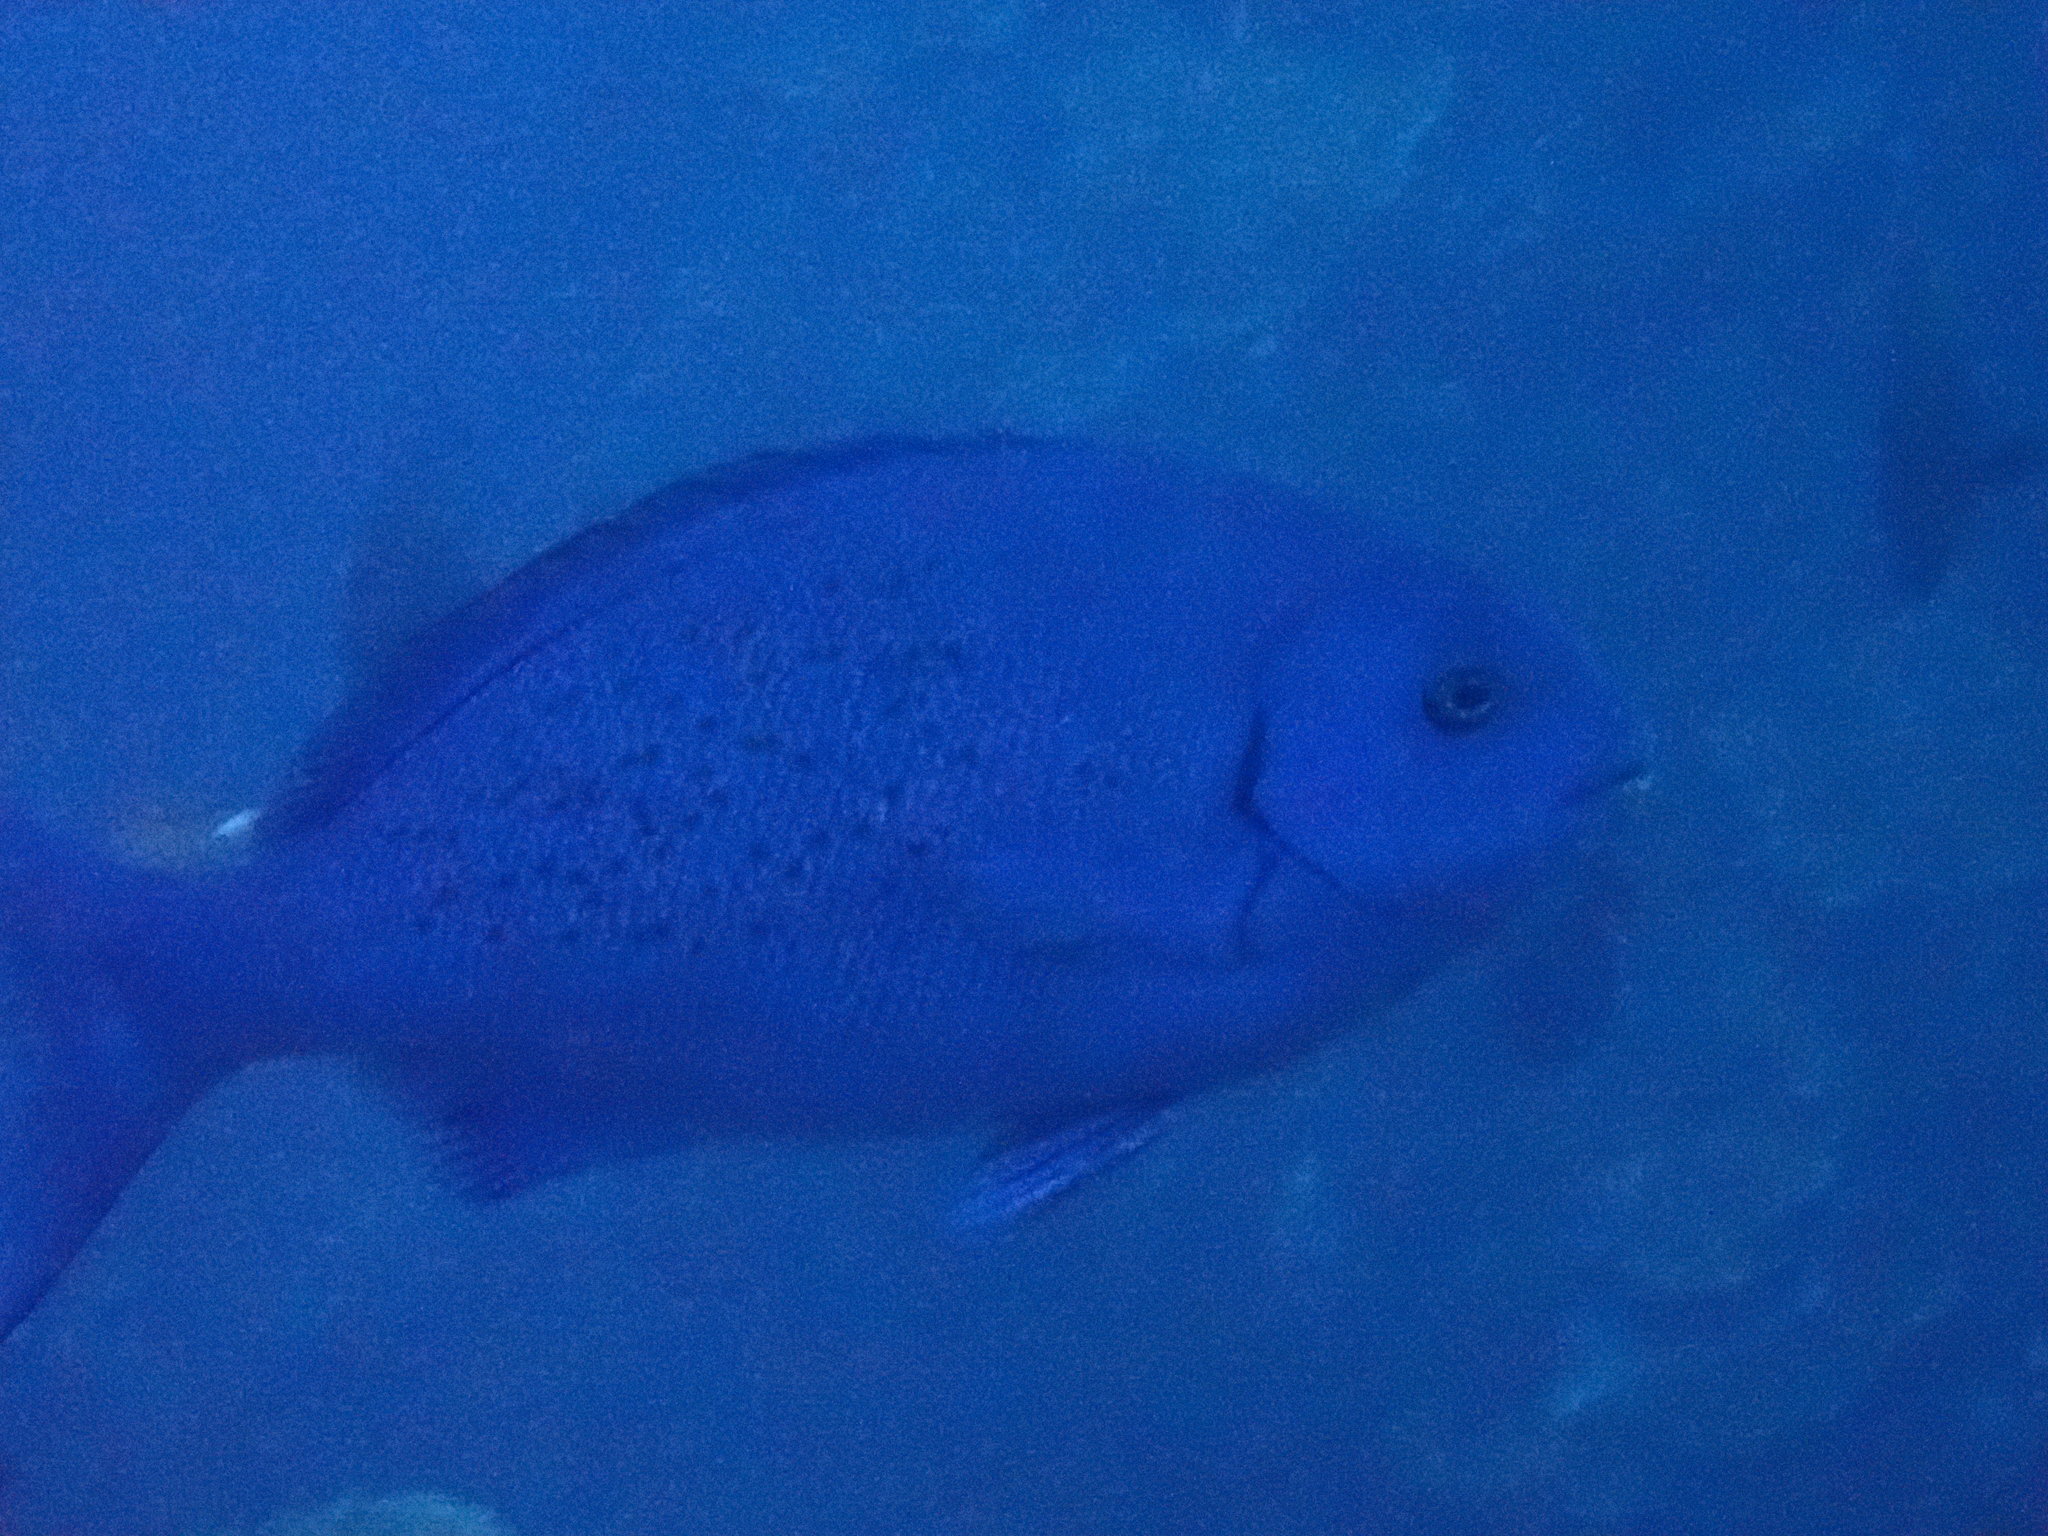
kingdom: Animalia
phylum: Chordata
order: Perciformes
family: Kyphosidae
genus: Girella
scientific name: Girella cyanea
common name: Bluefish
